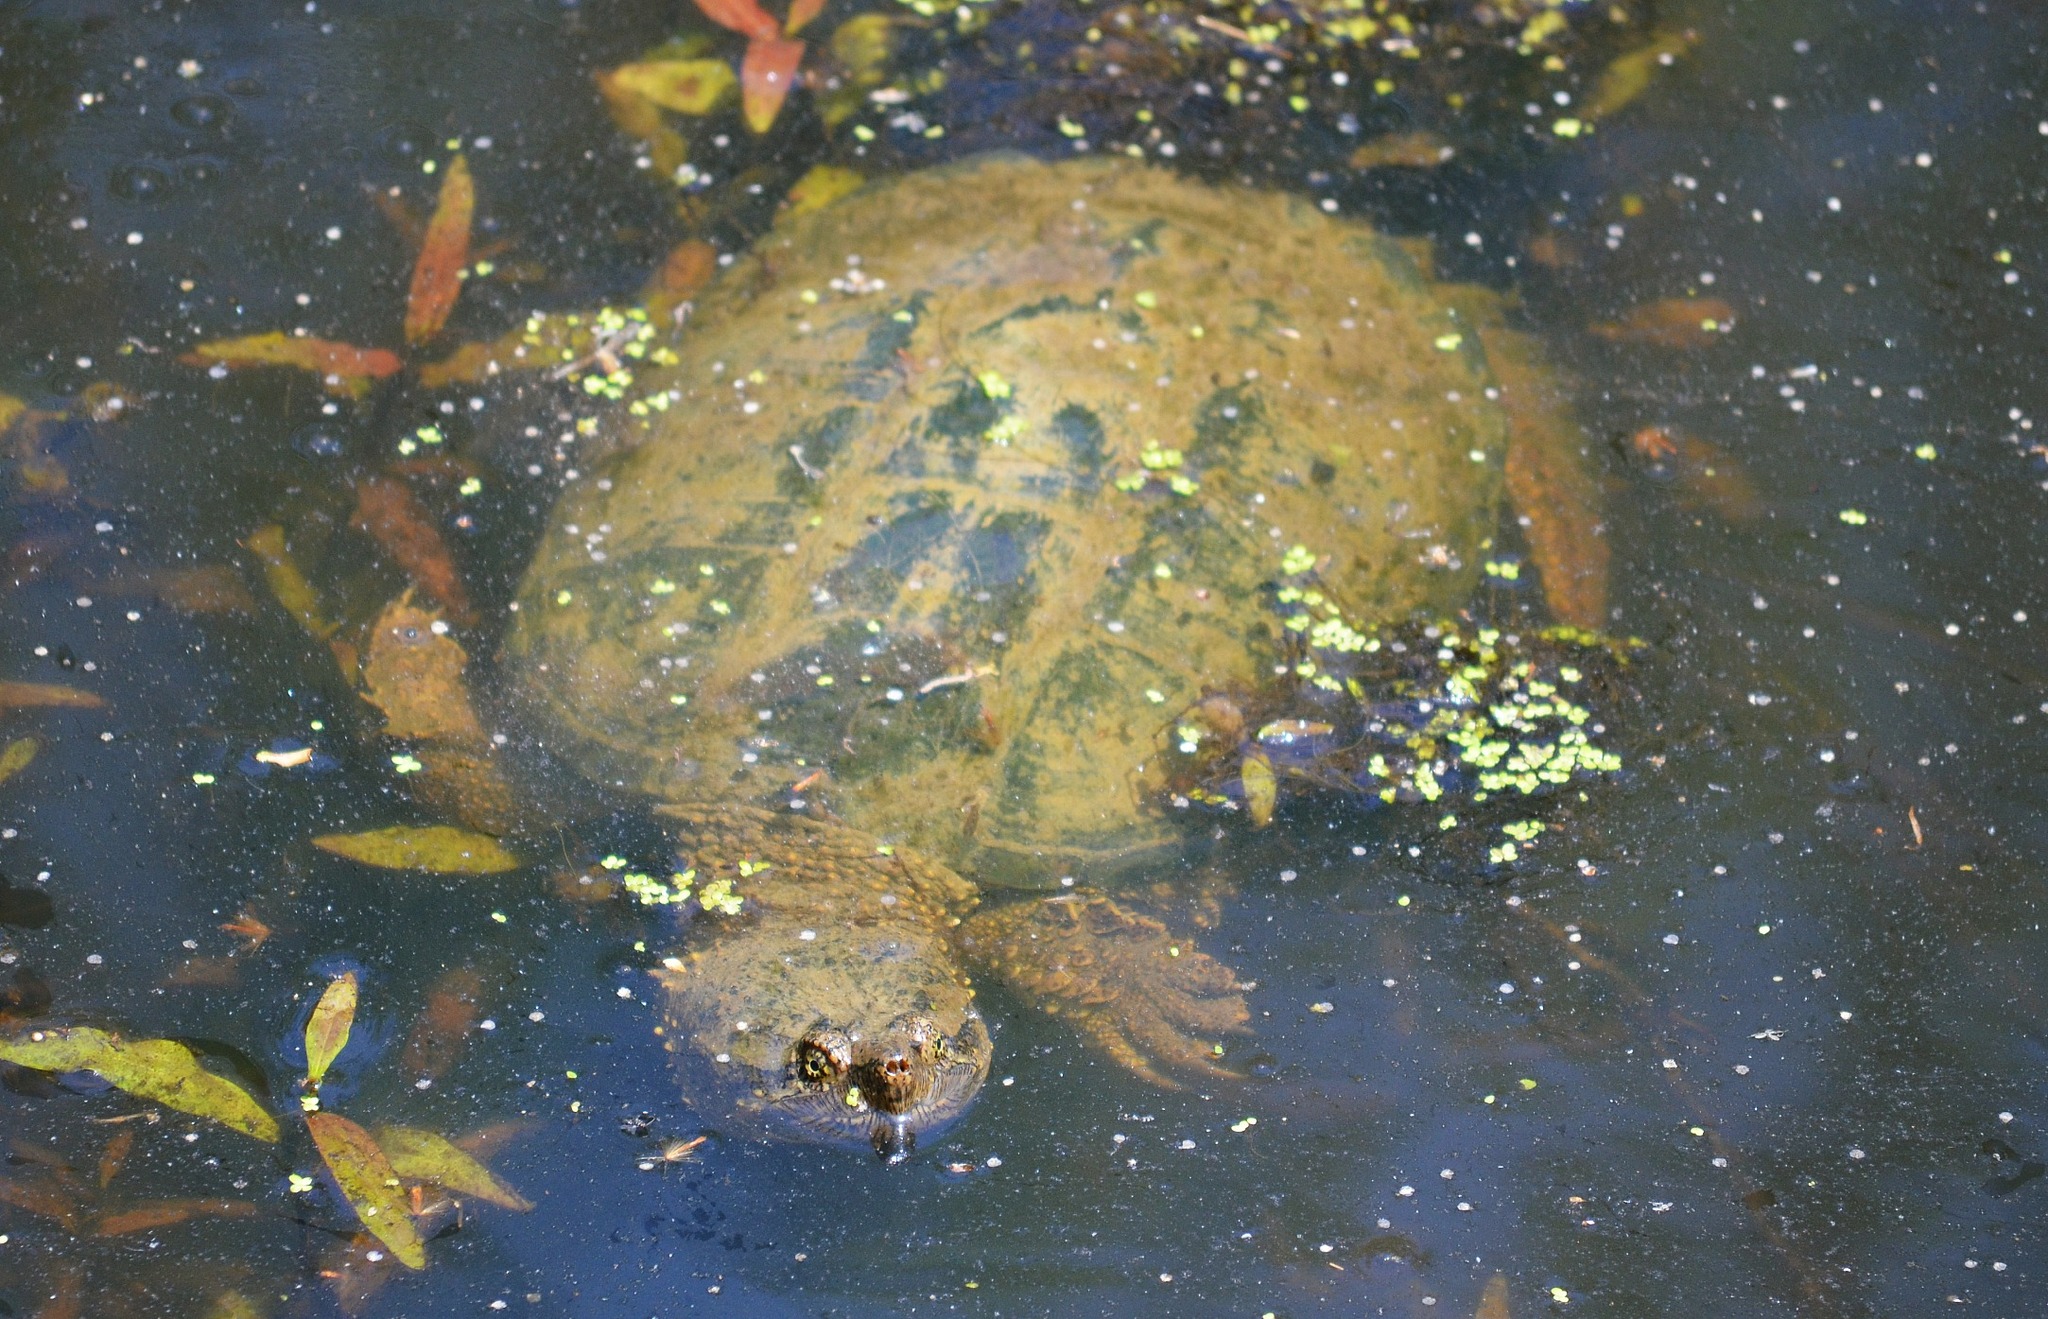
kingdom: Animalia
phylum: Chordata
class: Testudines
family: Chelydridae
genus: Chelydra
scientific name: Chelydra serpentina
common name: Common snapping turtle
